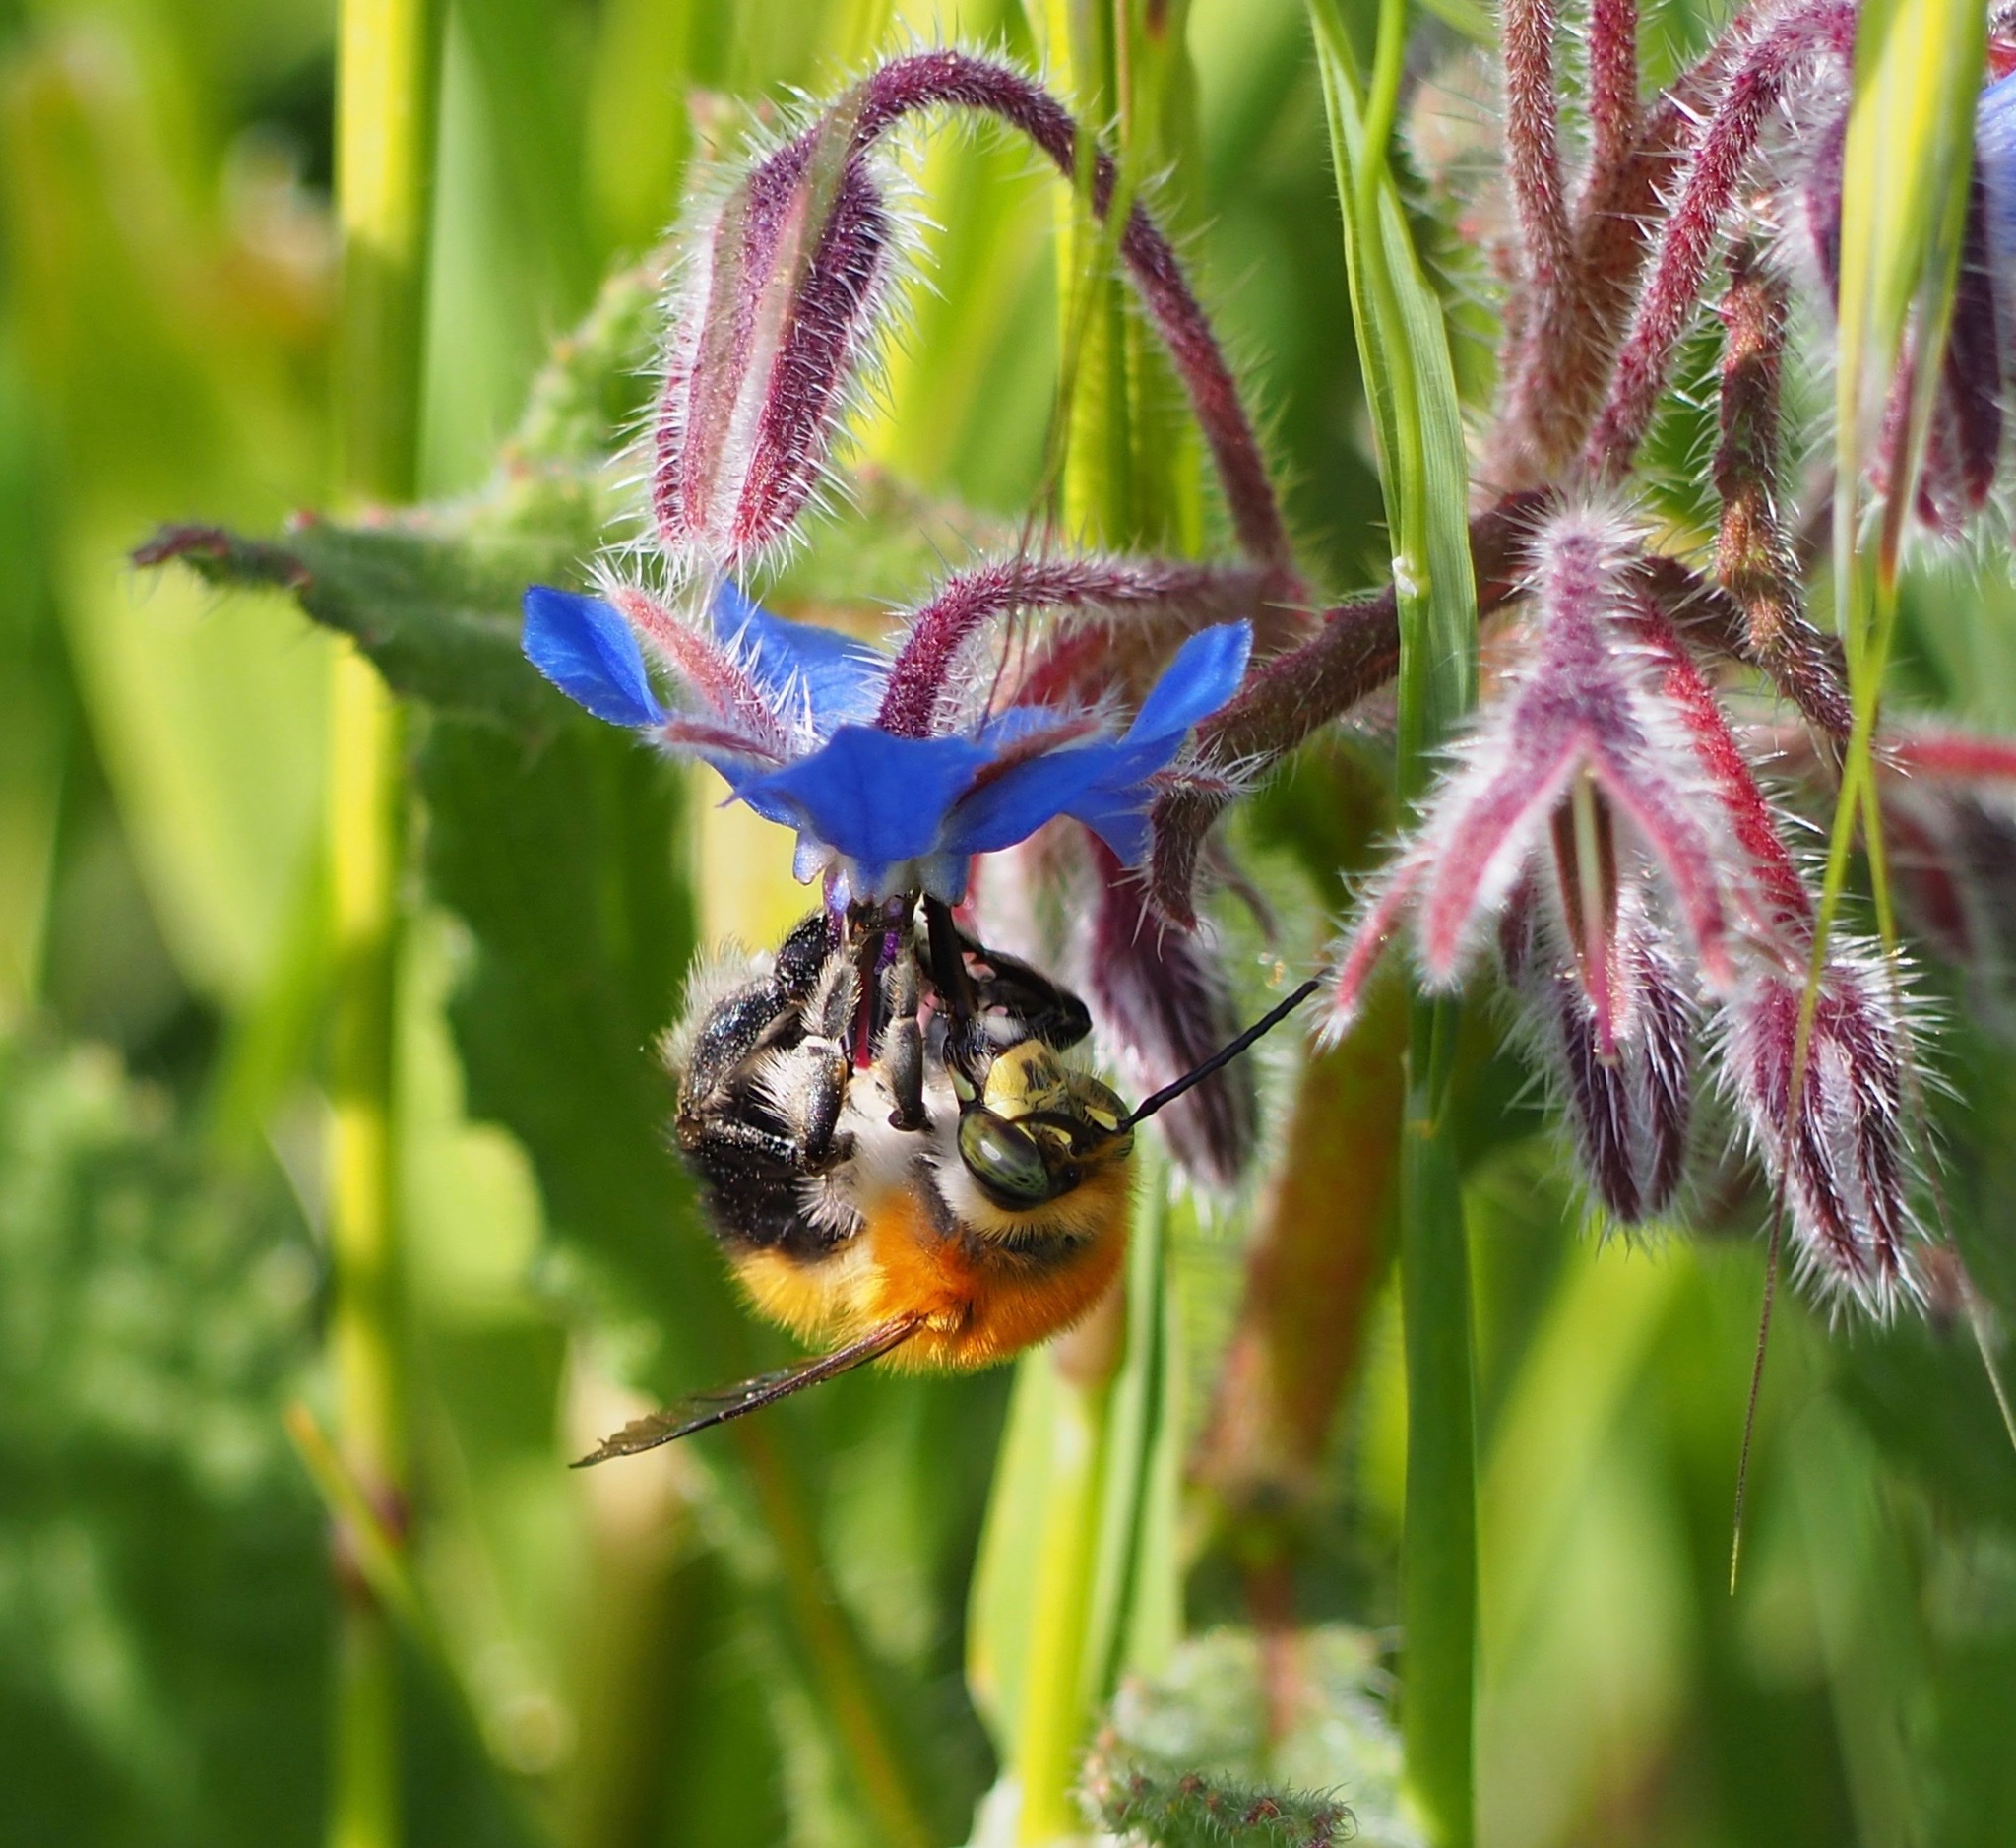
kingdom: Animalia
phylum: Arthropoda
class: Insecta
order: Hymenoptera
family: Apidae
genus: Habropoda
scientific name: Habropoda tarsata
